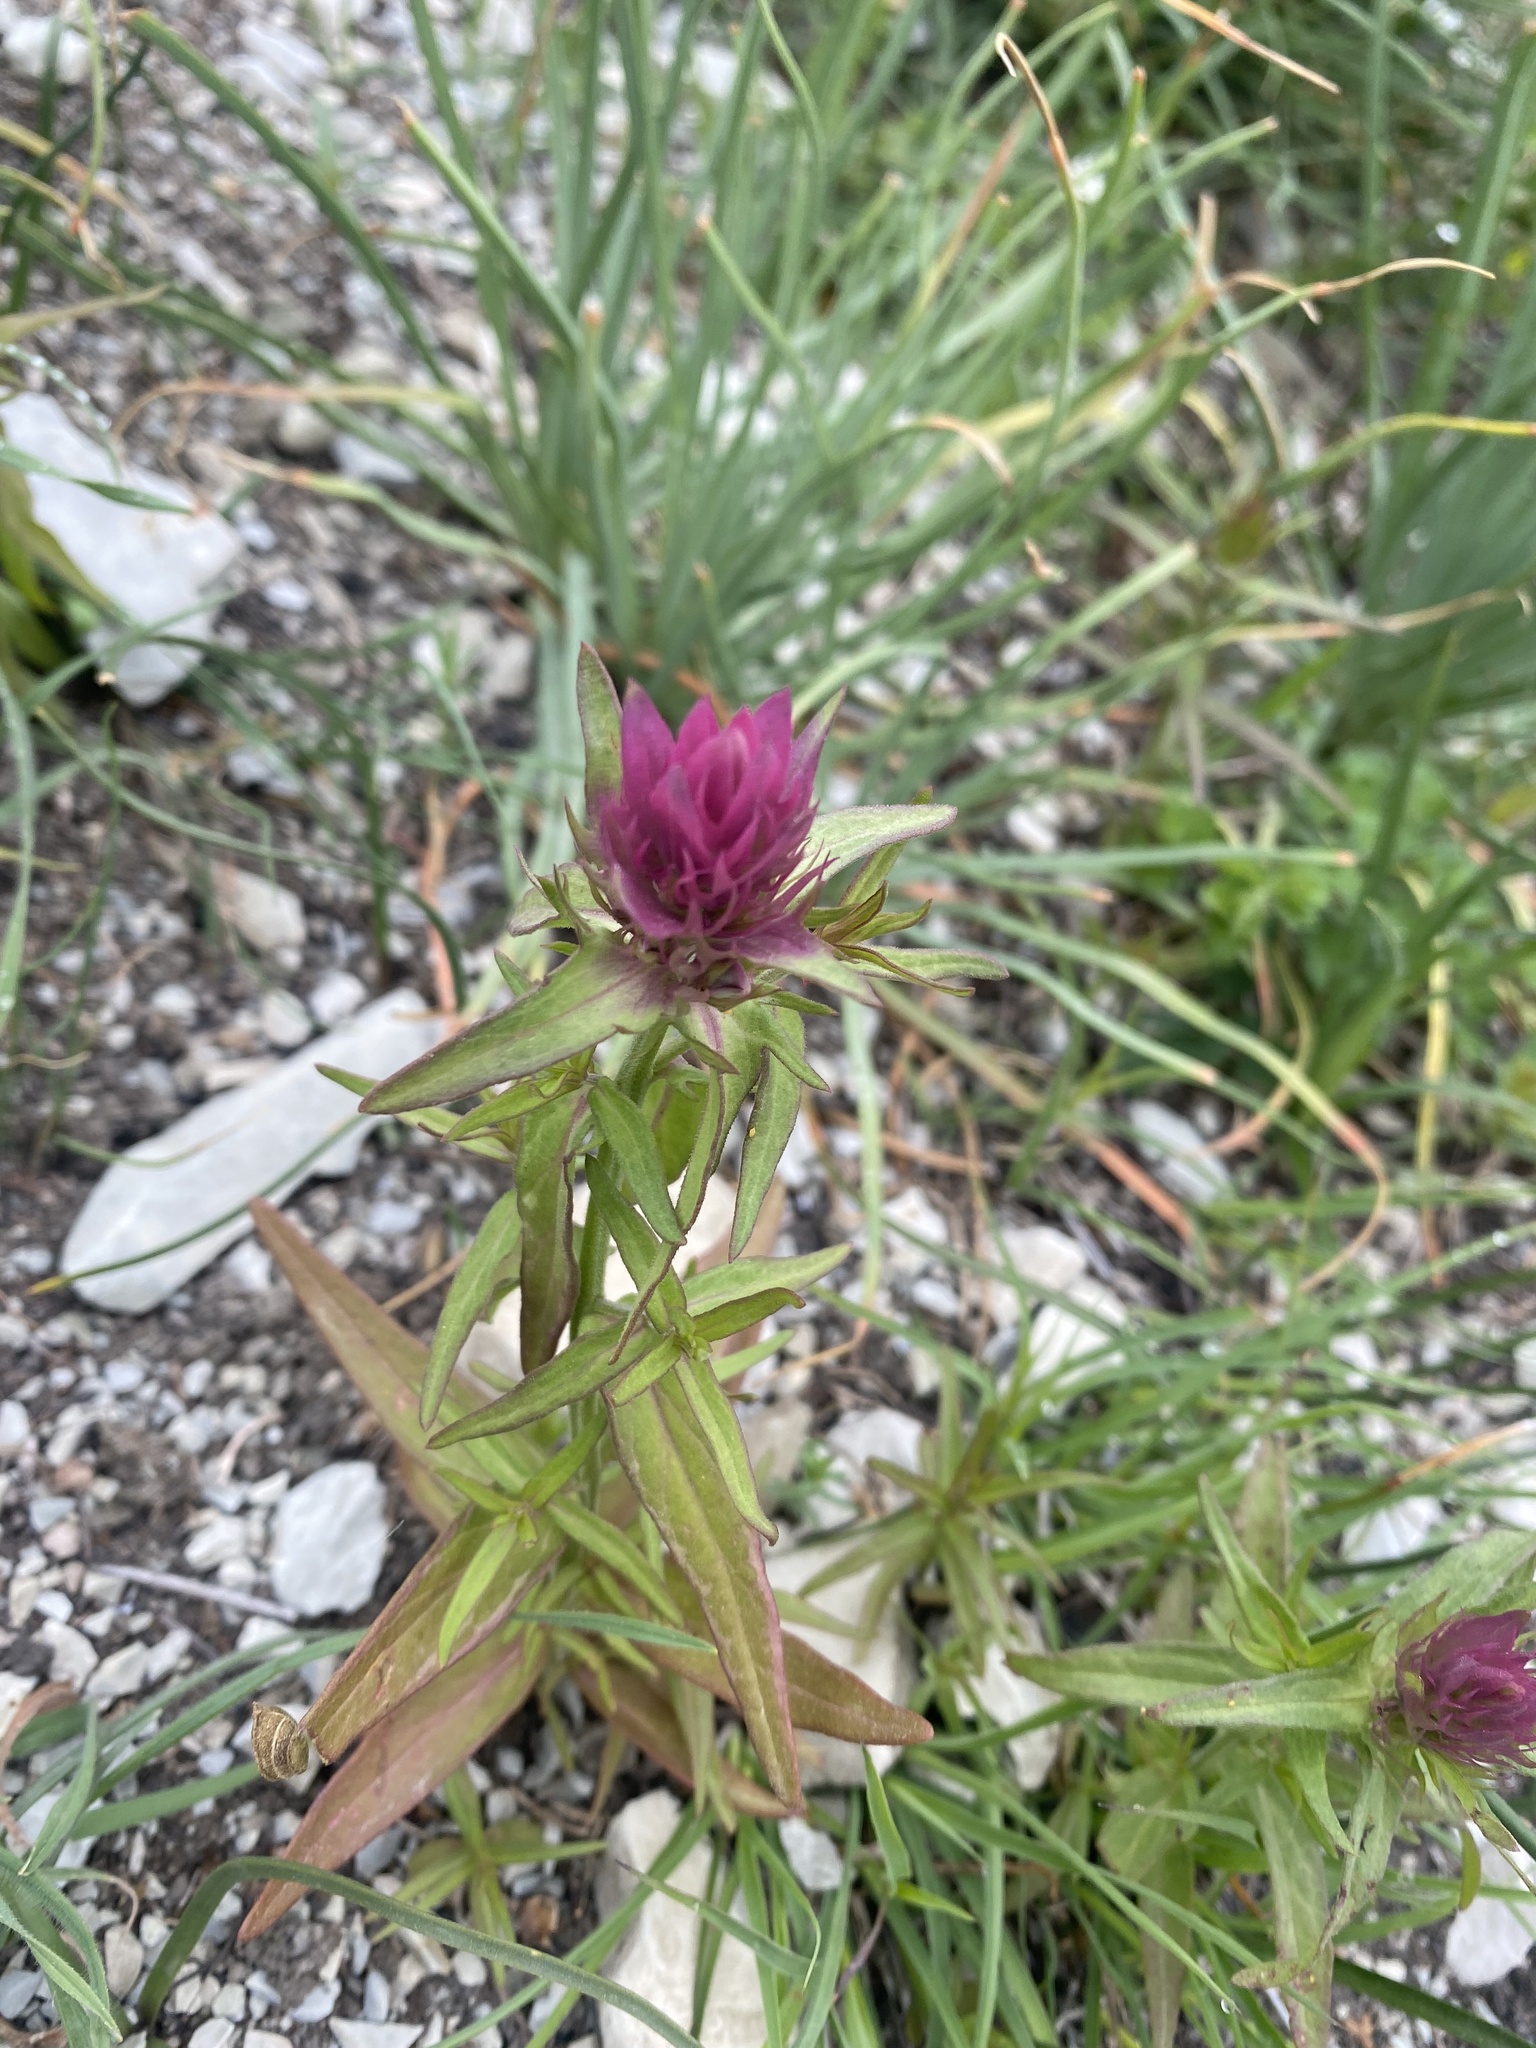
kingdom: Plantae
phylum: Tracheophyta
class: Magnoliopsida
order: Lamiales
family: Orobanchaceae
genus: Melampyrum
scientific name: Melampyrum arvense
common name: Field cow-wheat
